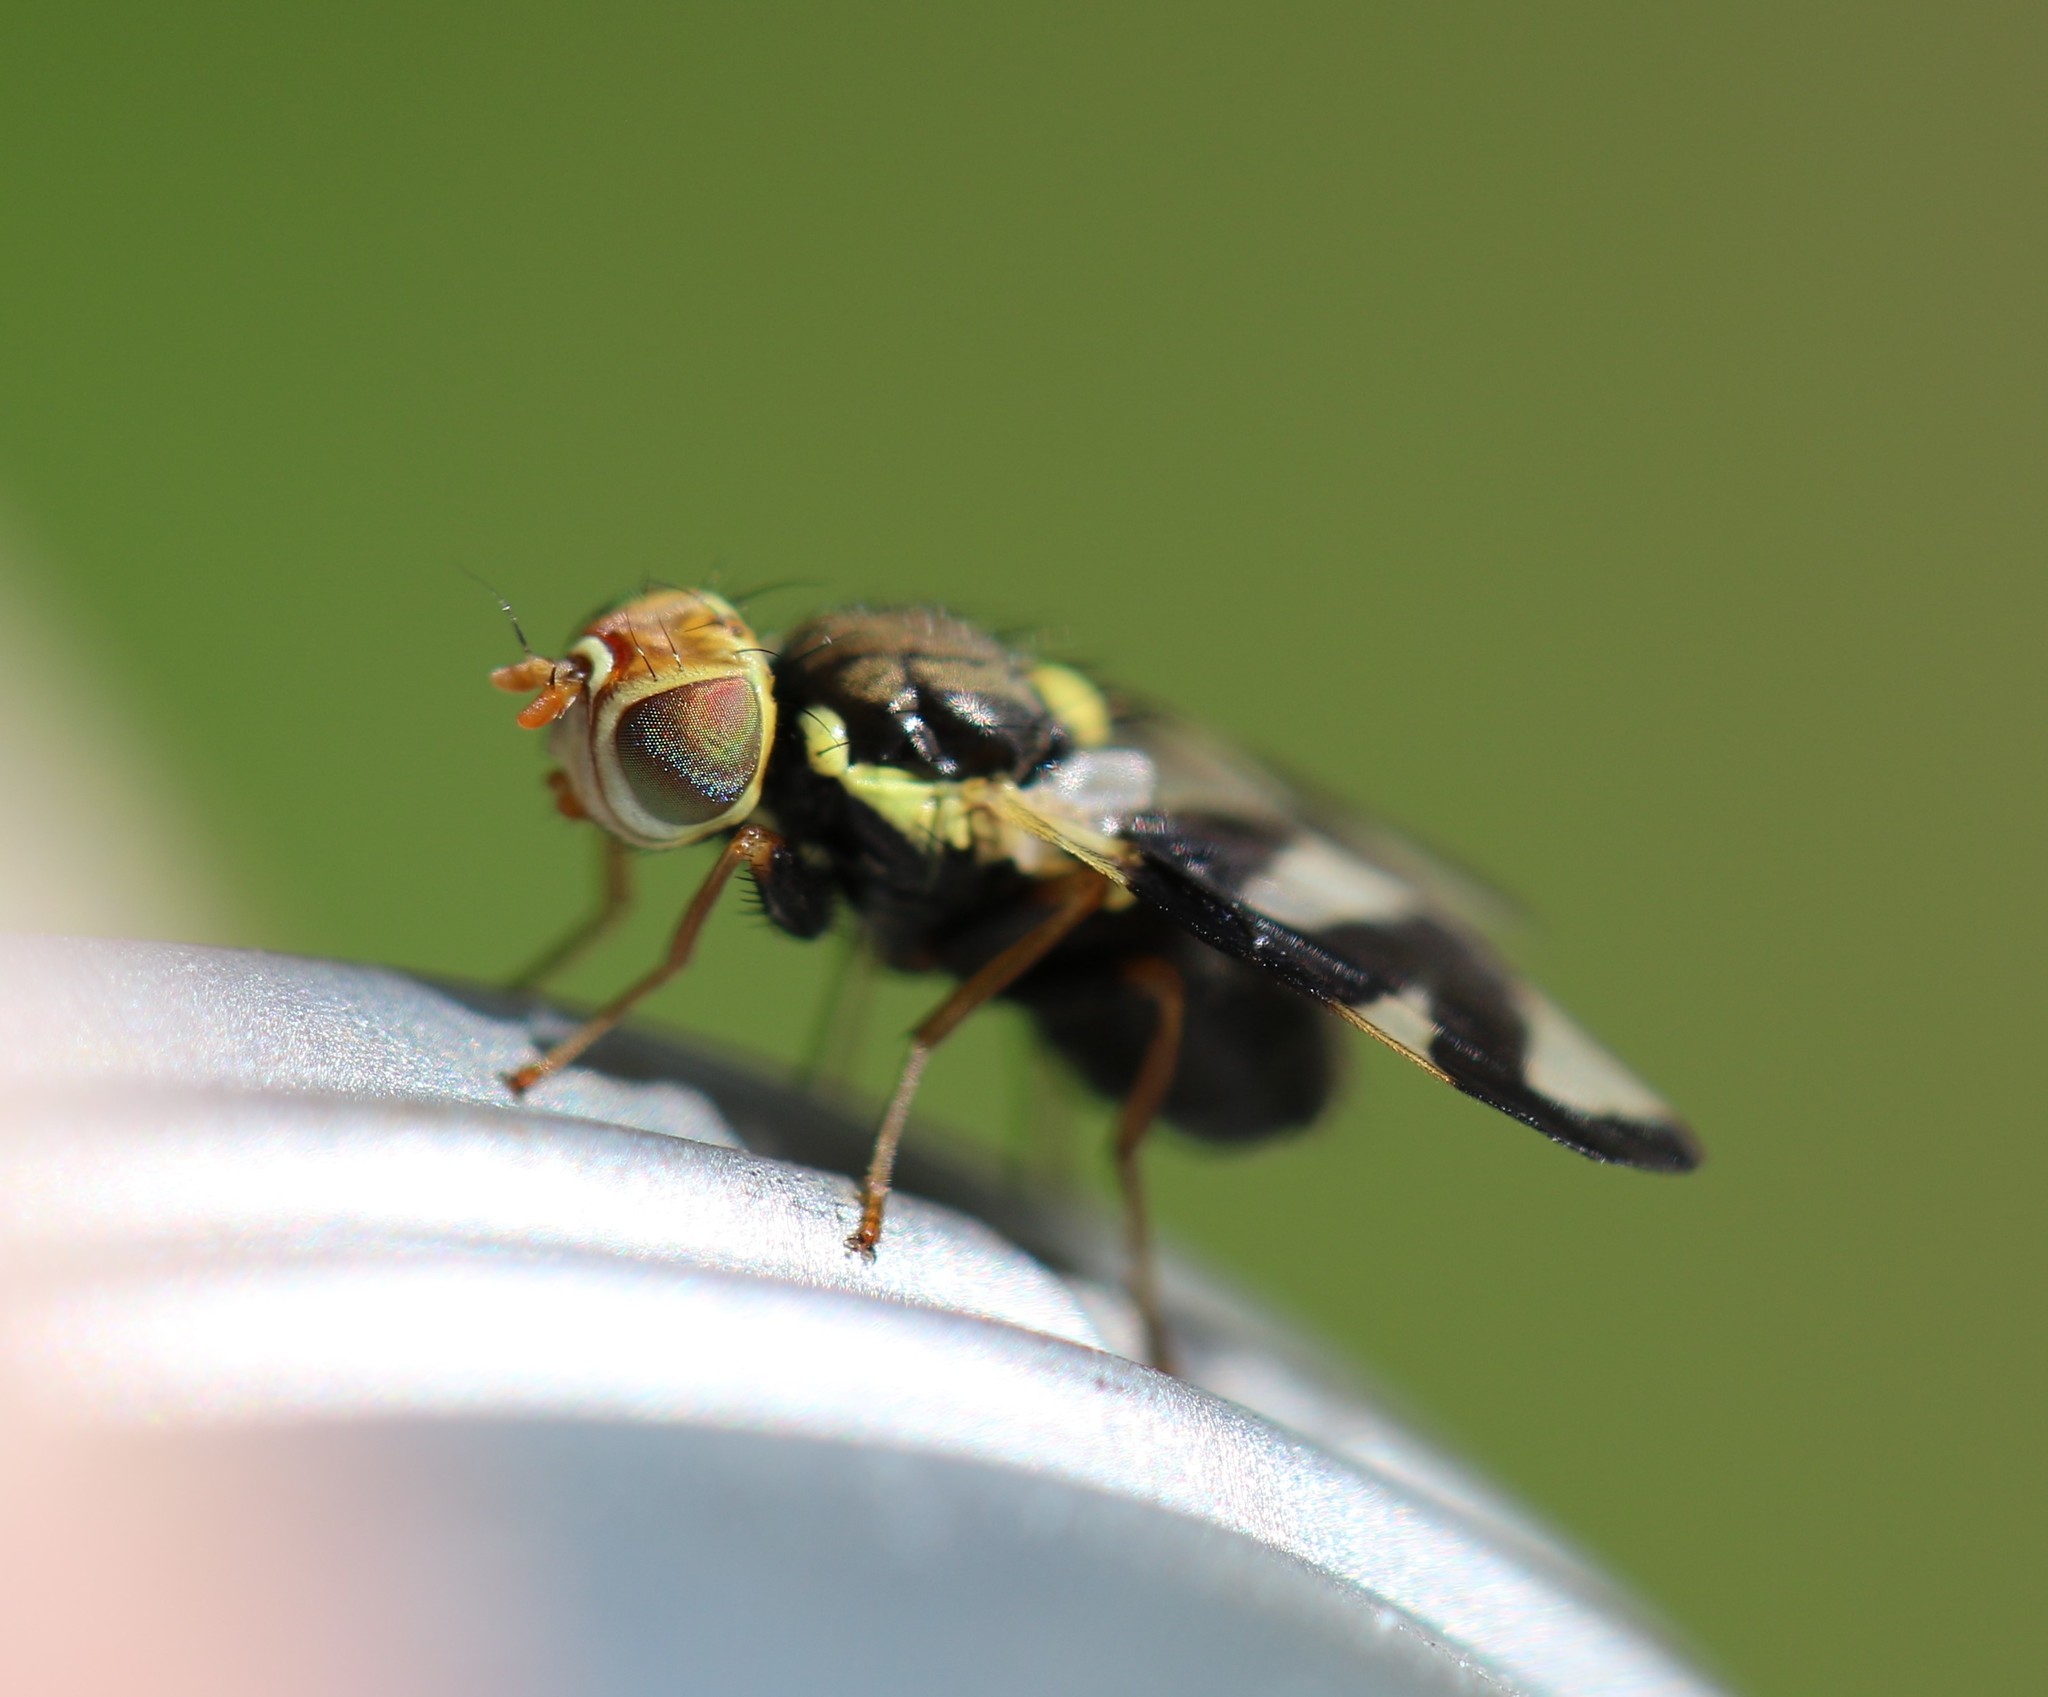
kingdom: Animalia
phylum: Arthropoda
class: Insecta
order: Diptera
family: Tephritidae
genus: Urophora
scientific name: Urophora cardui
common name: Fruit fly
